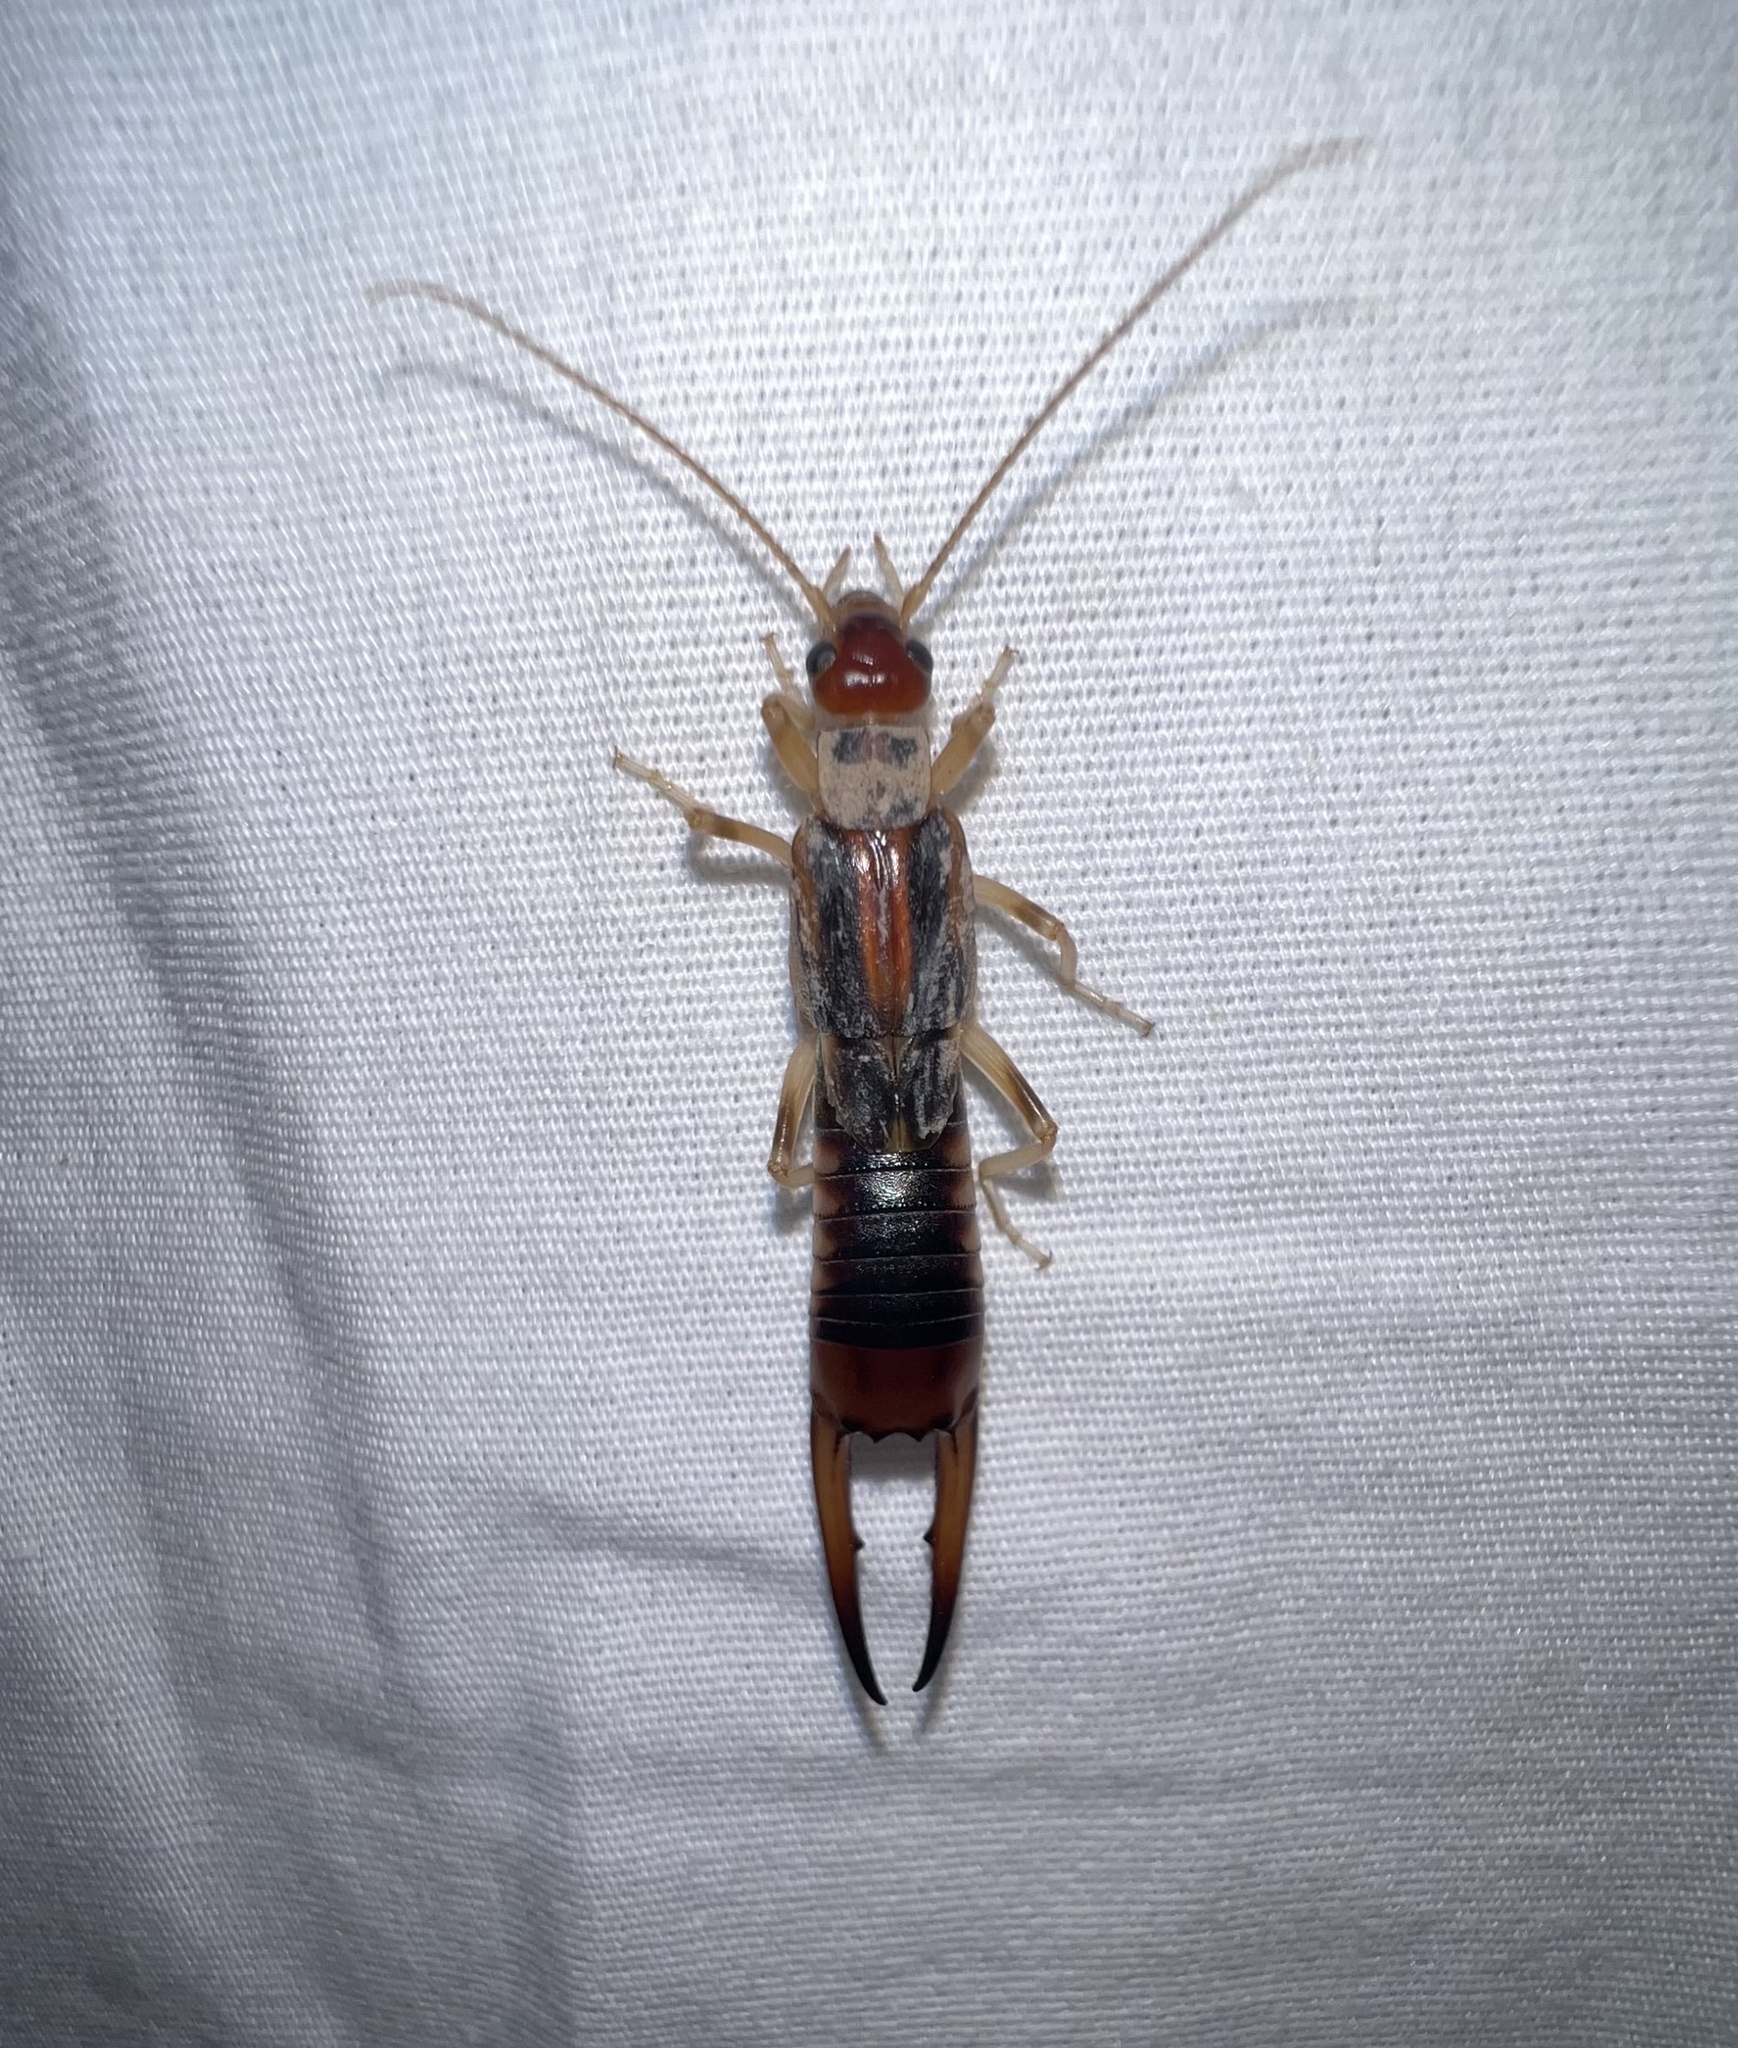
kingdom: Animalia
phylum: Arthropoda
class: Insecta
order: Dermaptera
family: Labiduridae
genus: Labidura
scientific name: Labidura riparia
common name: Striped earwig
